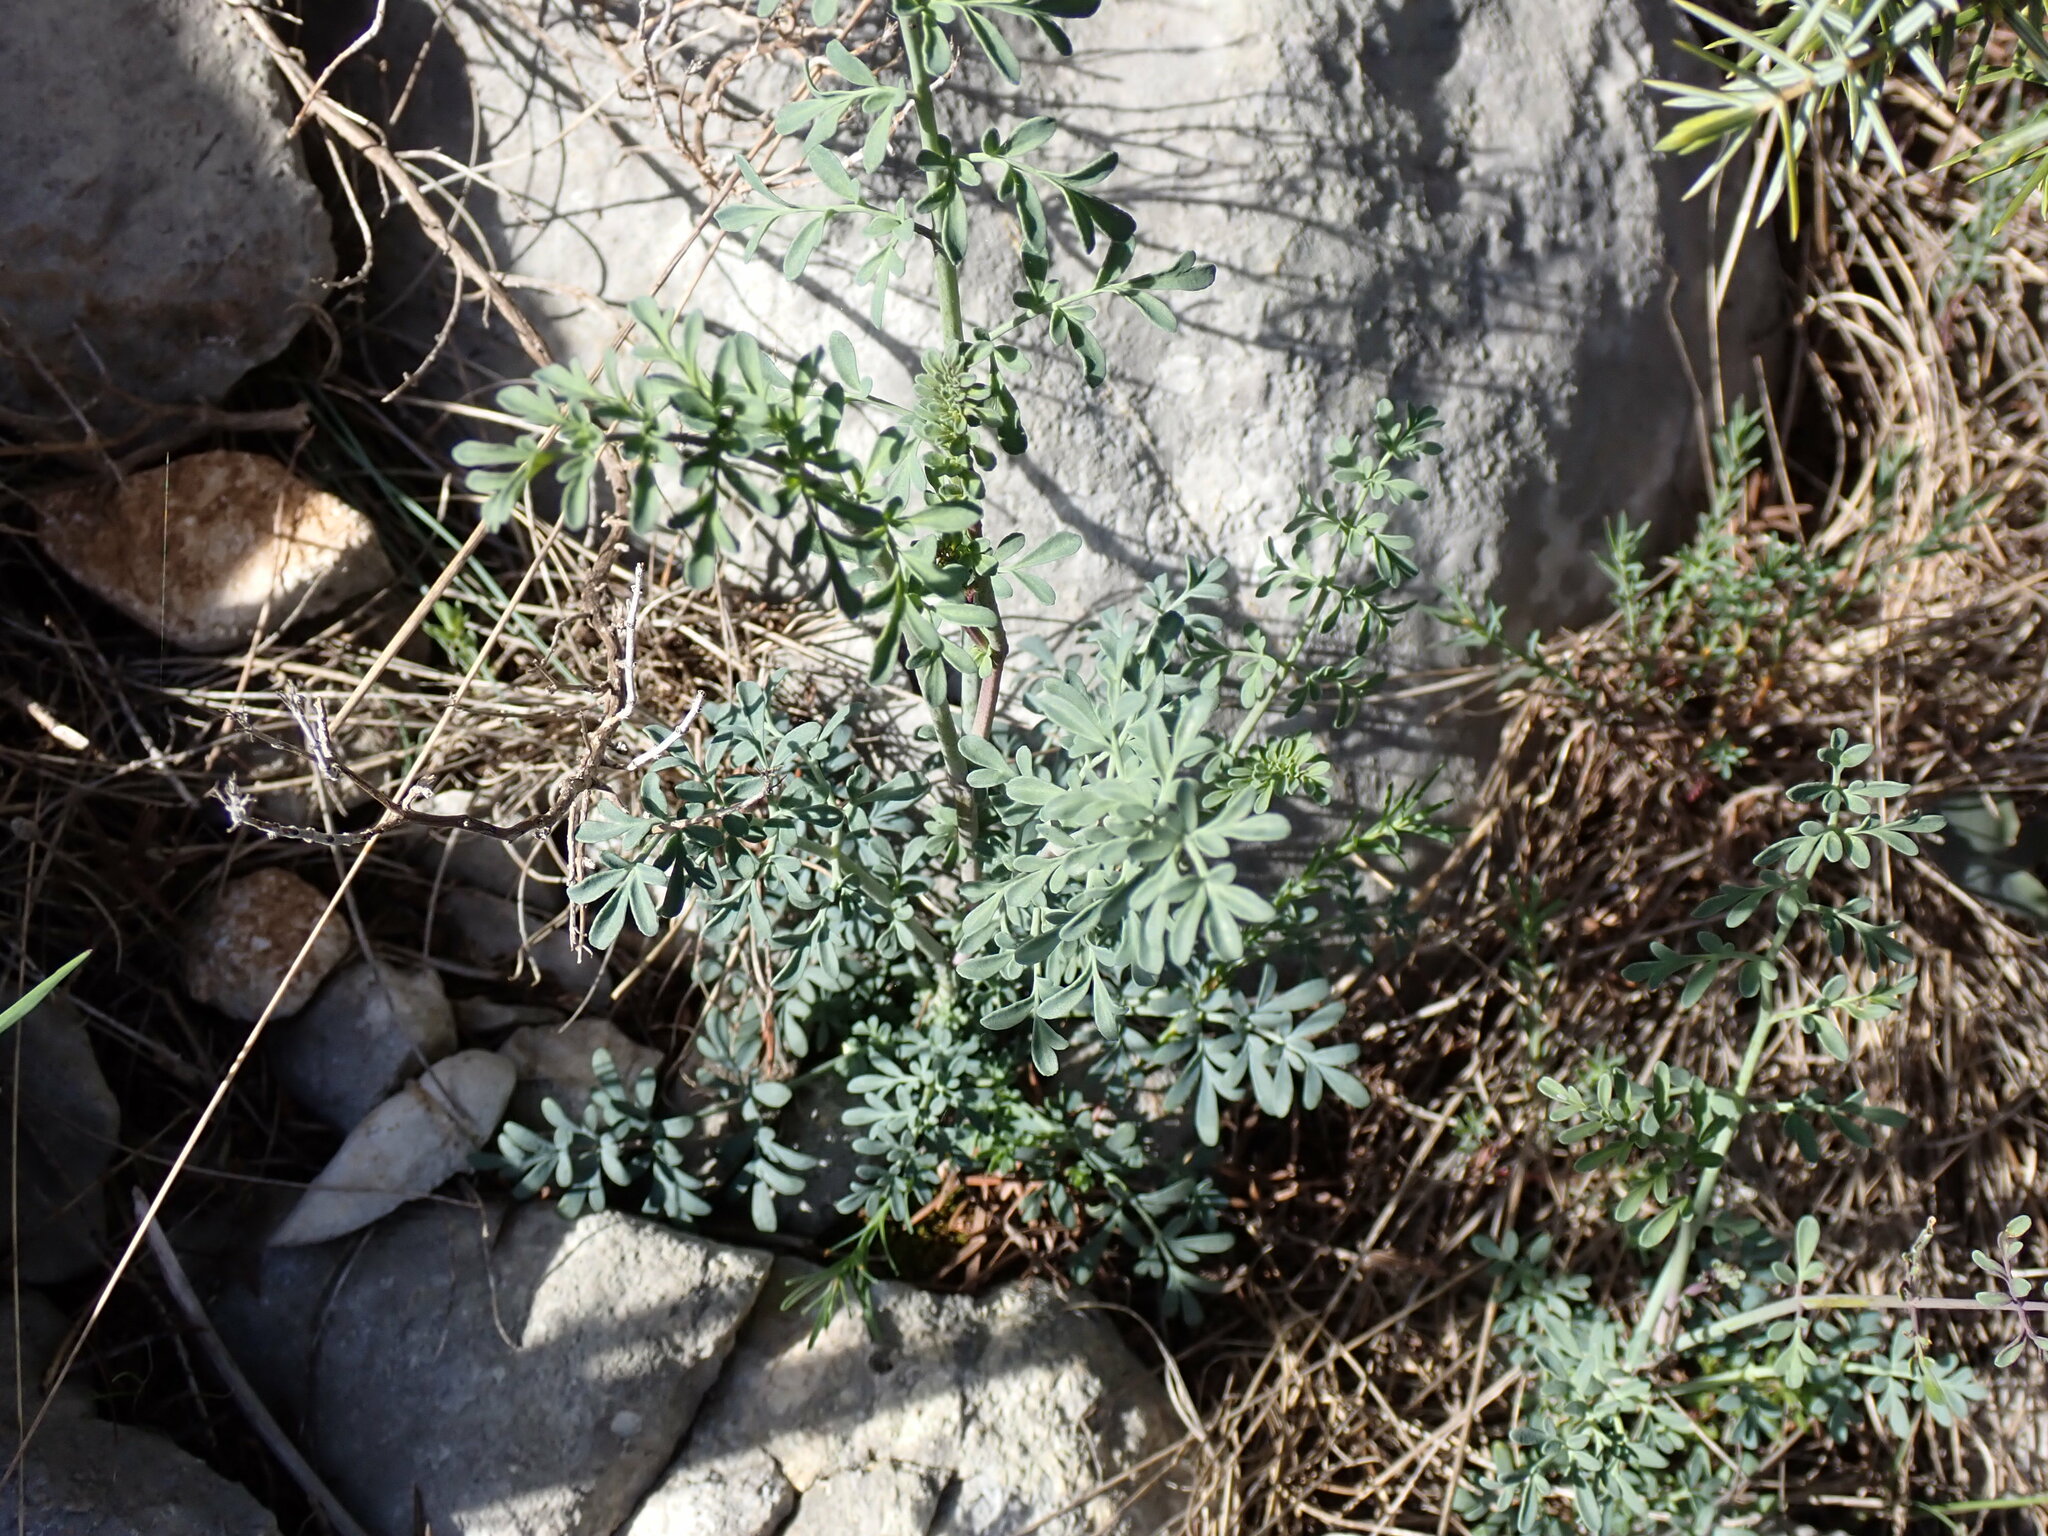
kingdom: Plantae
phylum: Tracheophyta
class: Magnoliopsida
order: Sapindales
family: Rutaceae
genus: Ruta
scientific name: Ruta angustifolia
